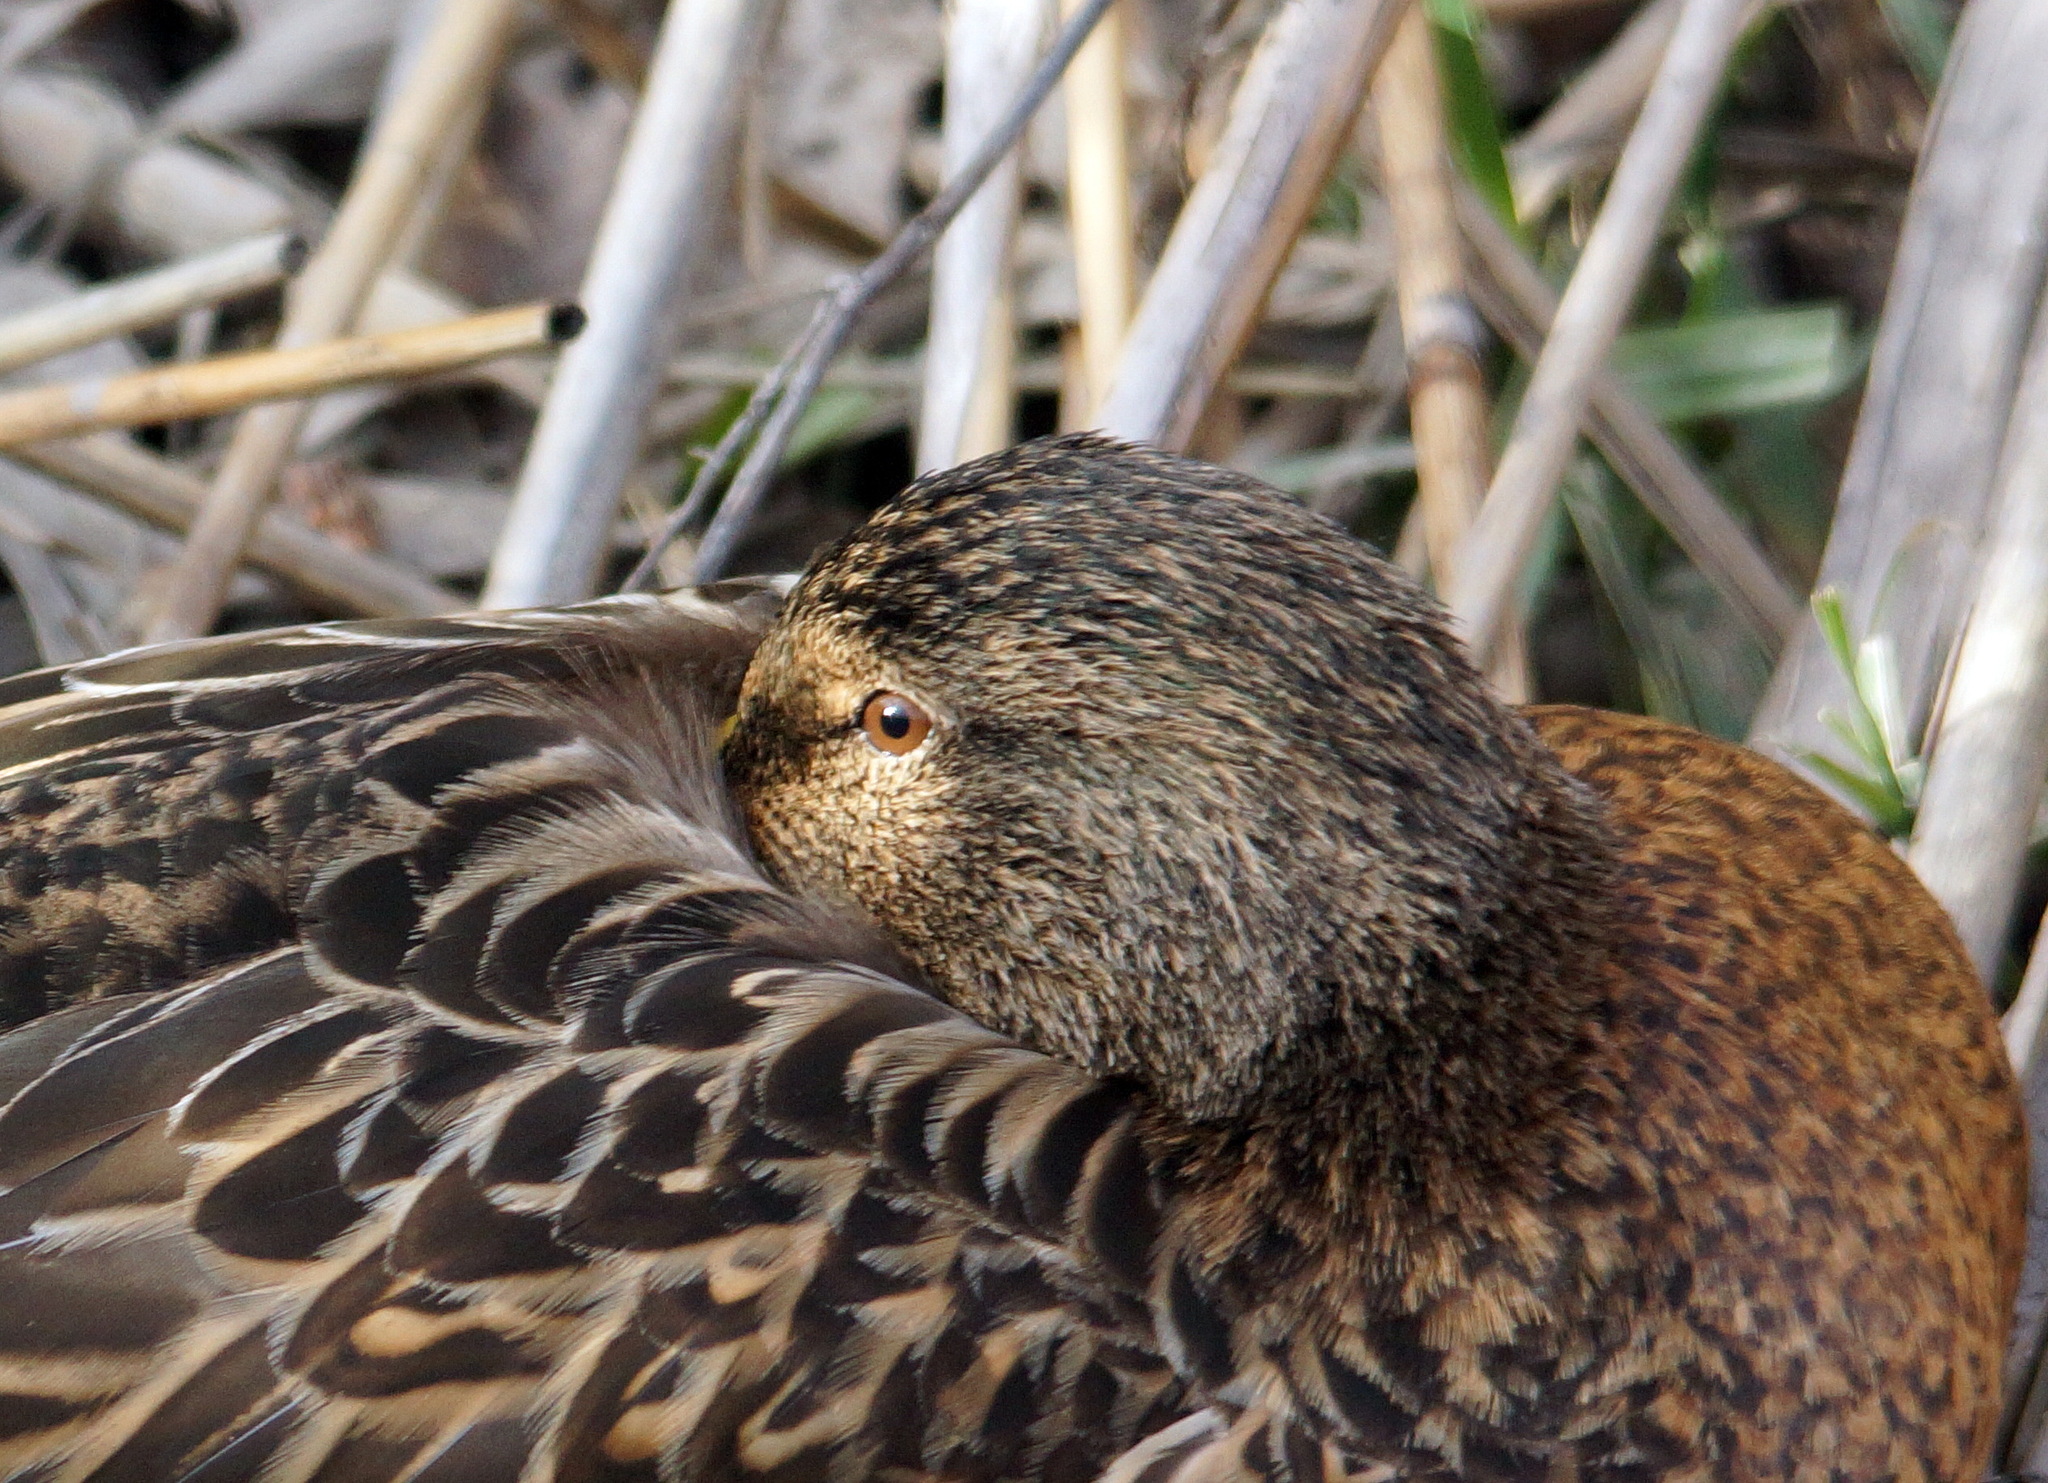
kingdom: Animalia
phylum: Chordata
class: Aves
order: Anseriformes
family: Anatidae
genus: Anas
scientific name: Anas platyrhynchos
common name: Mallard
